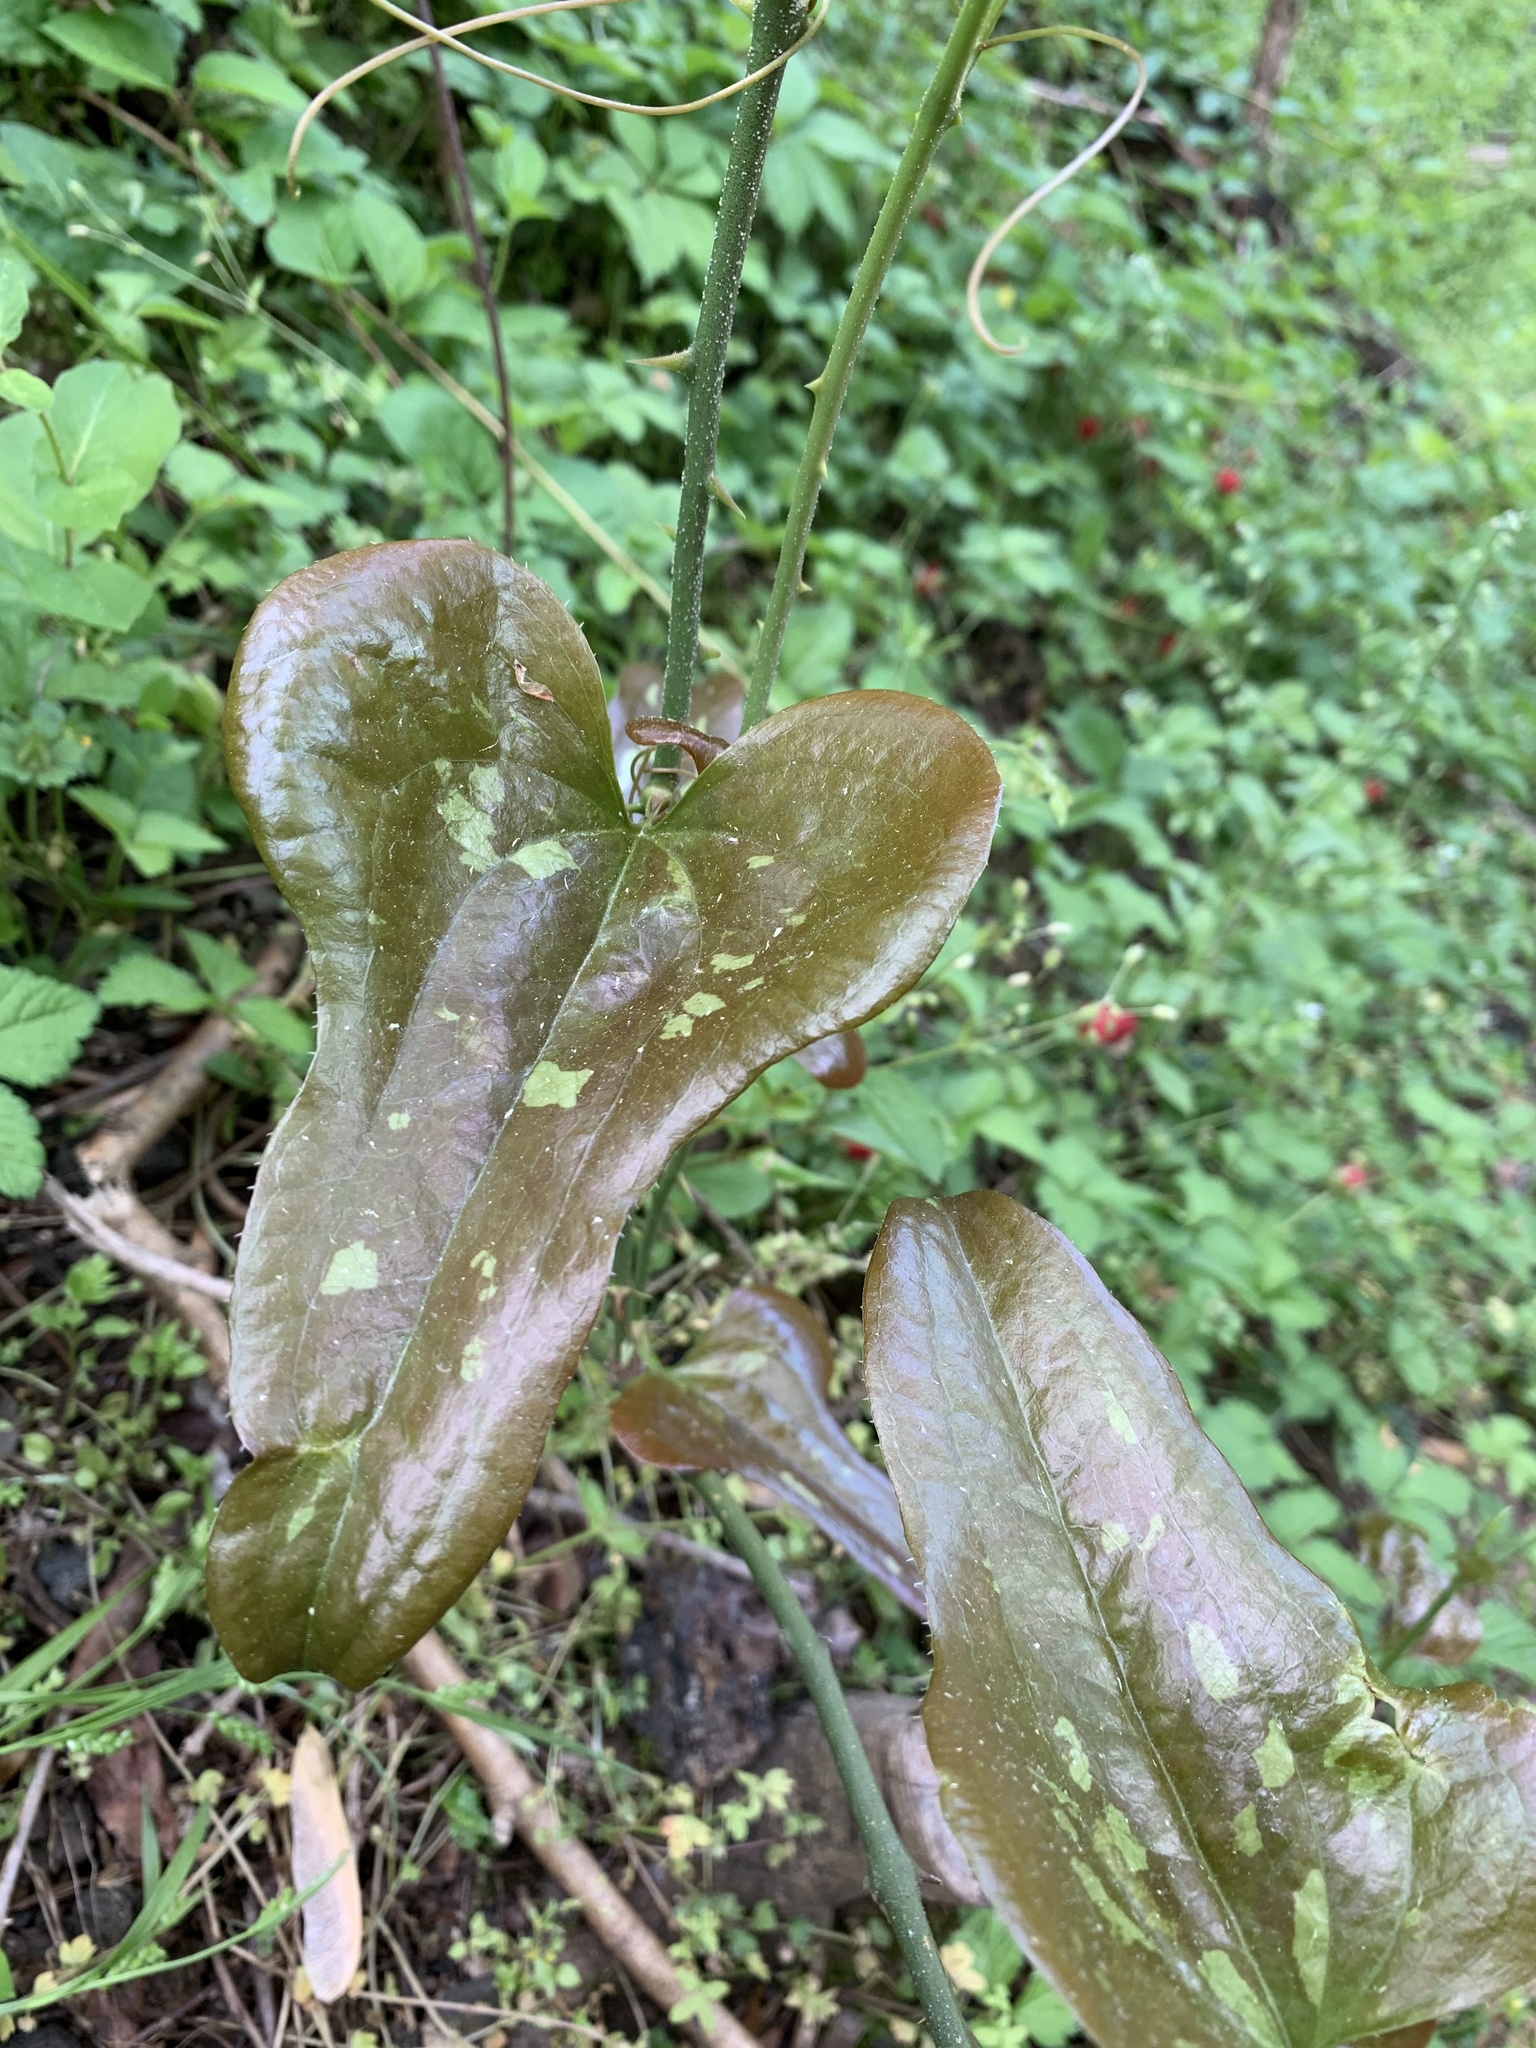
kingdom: Plantae
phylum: Tracheophyta
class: Liliopsida
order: Liliales
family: Smilacaceae
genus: Smilax
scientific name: Smilax bona-nox
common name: Catbrier
